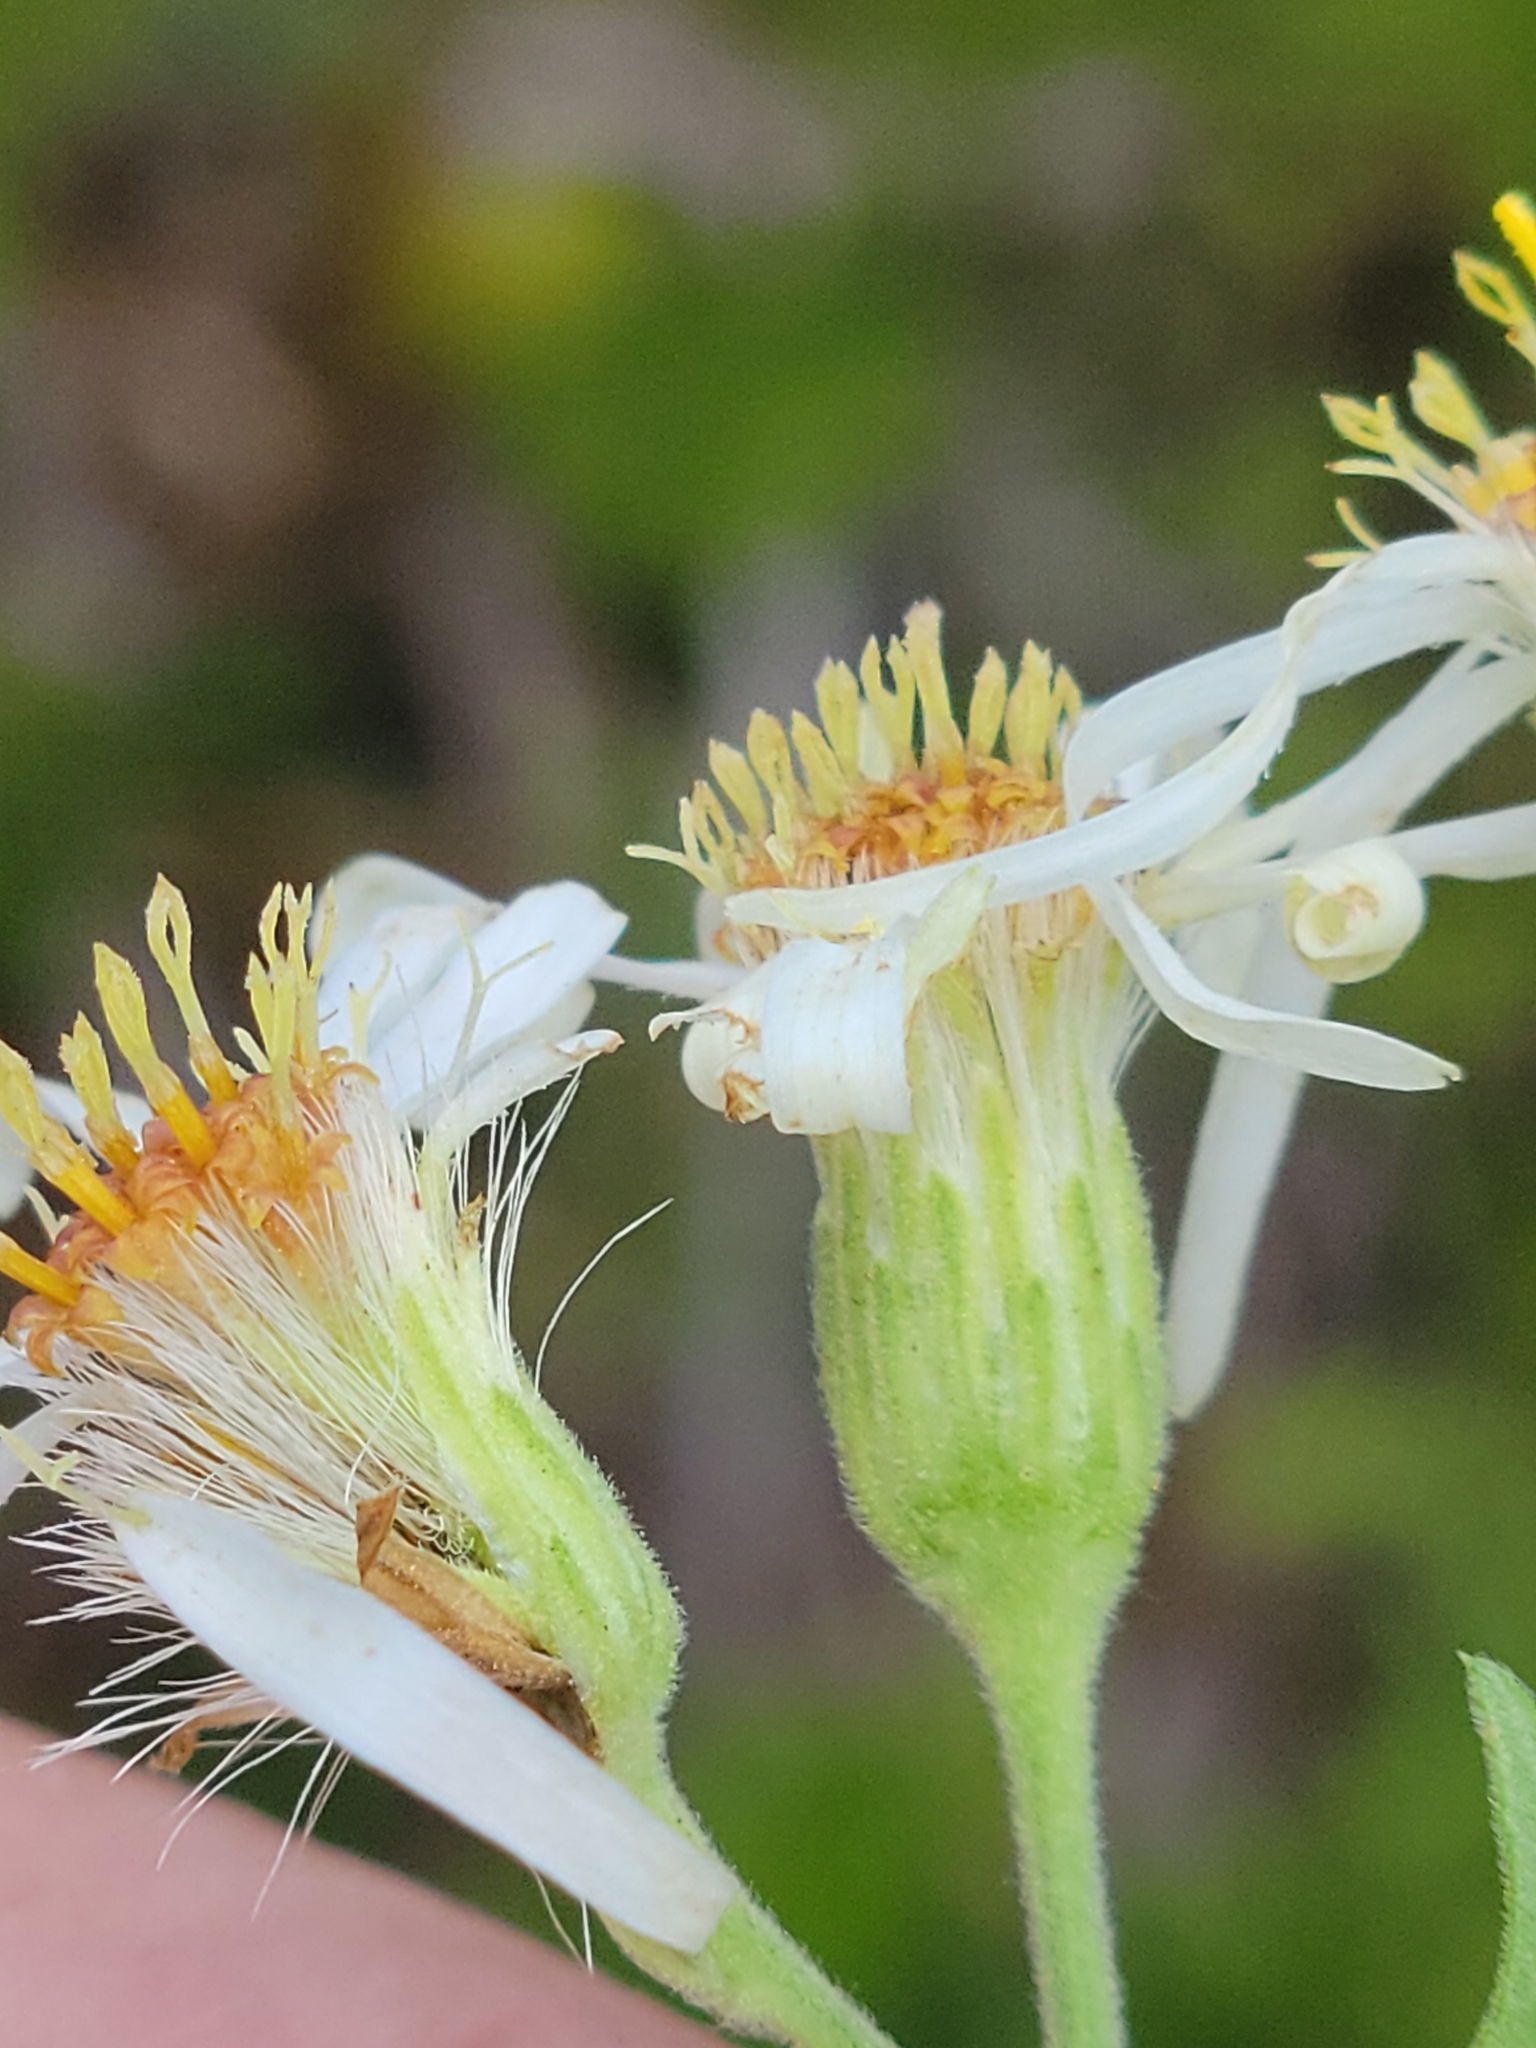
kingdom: Plantae
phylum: Tracheophyta
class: Magnoliopsida
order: Asterales
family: Asteraceae
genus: Oclemena
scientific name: Oclemena reticulata
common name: Pinebarren aster
